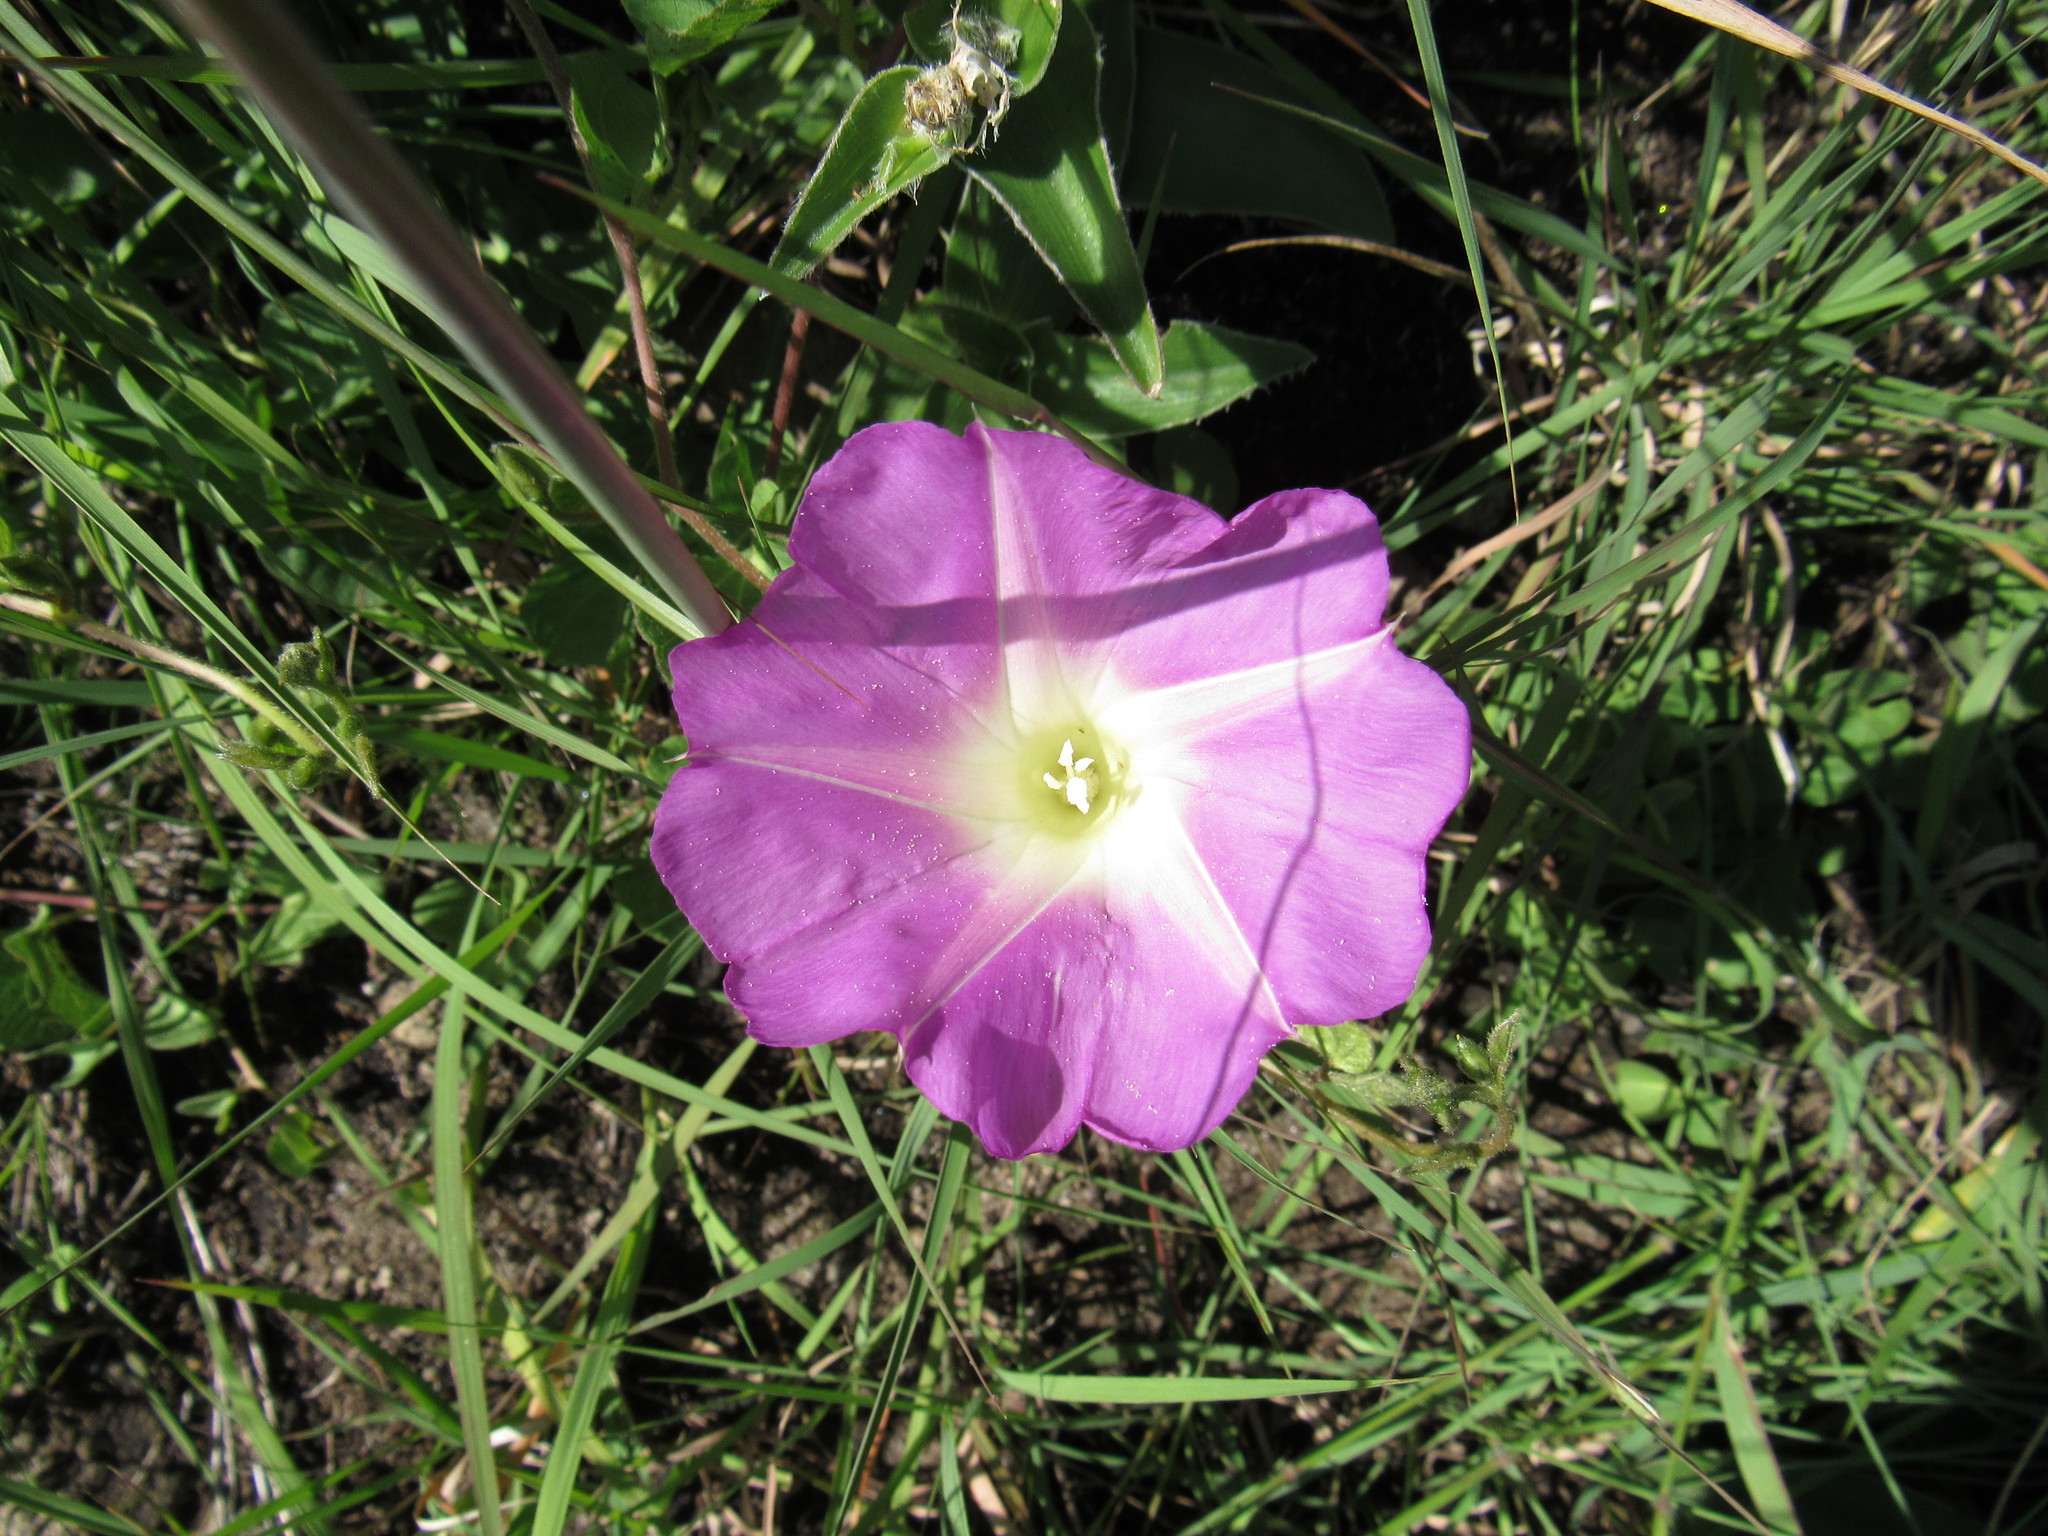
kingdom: Plantae
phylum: Tracheophyta
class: Magnoliopsida
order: Solanales
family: Convolvulaceae
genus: Ipomoea
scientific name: Ipomoea
